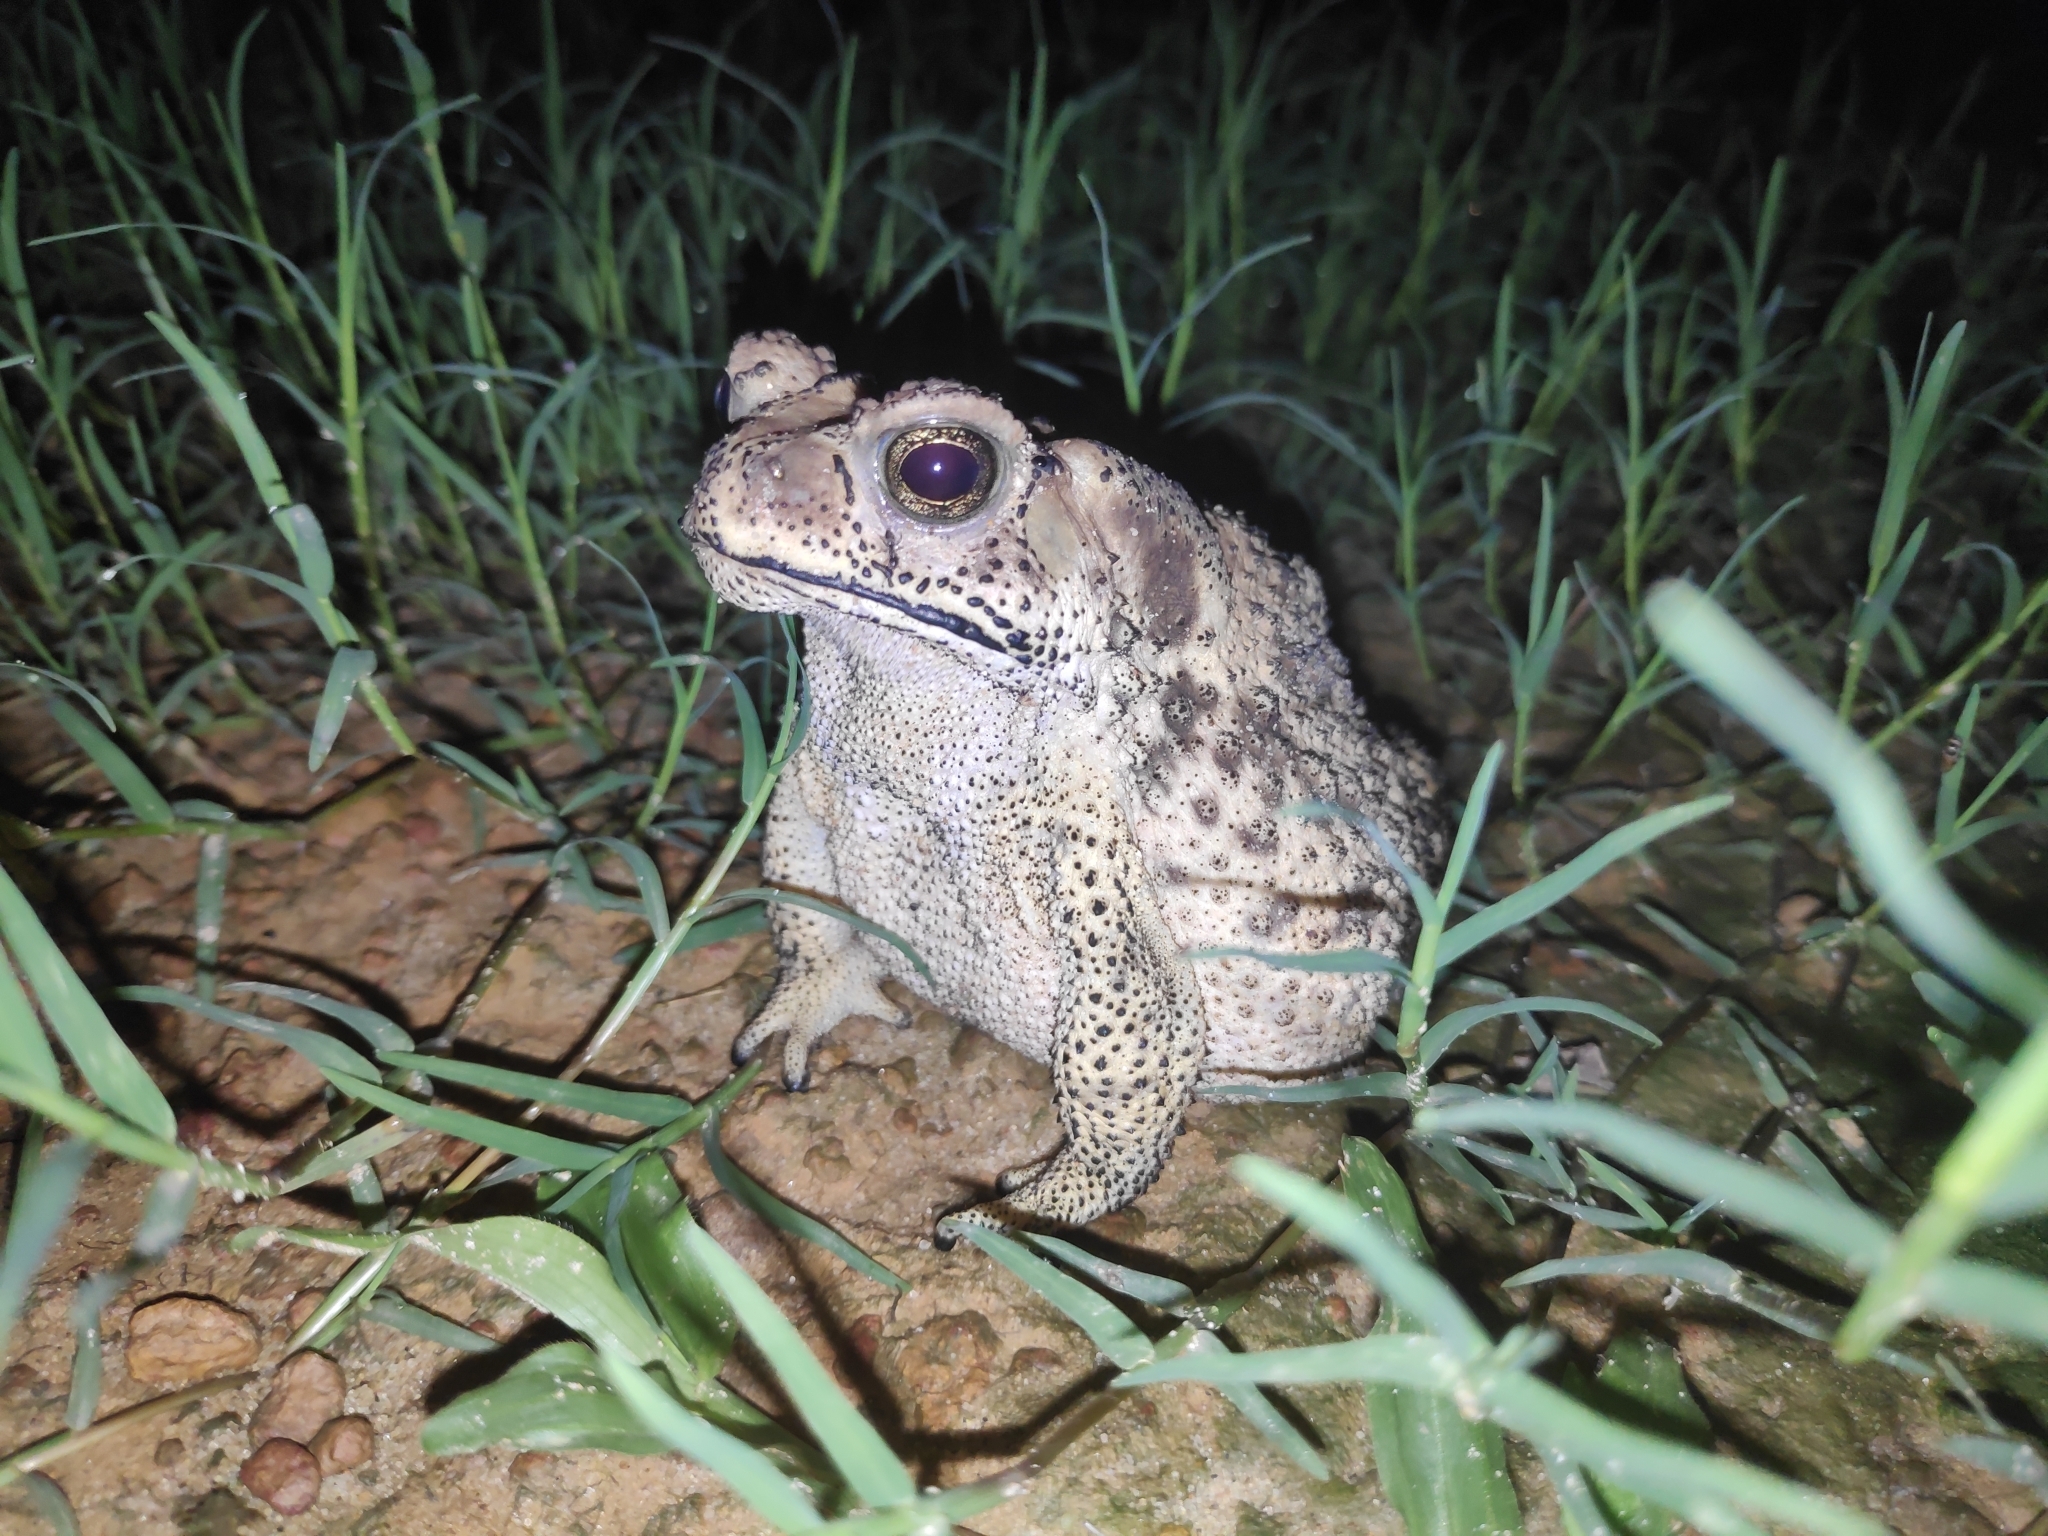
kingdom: Animalia
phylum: Chordata
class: Amphibia
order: Anura
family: Bufonidae
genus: Duttaphrynus
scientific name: Duttaphrynus melanostictus
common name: Common sunda toad
